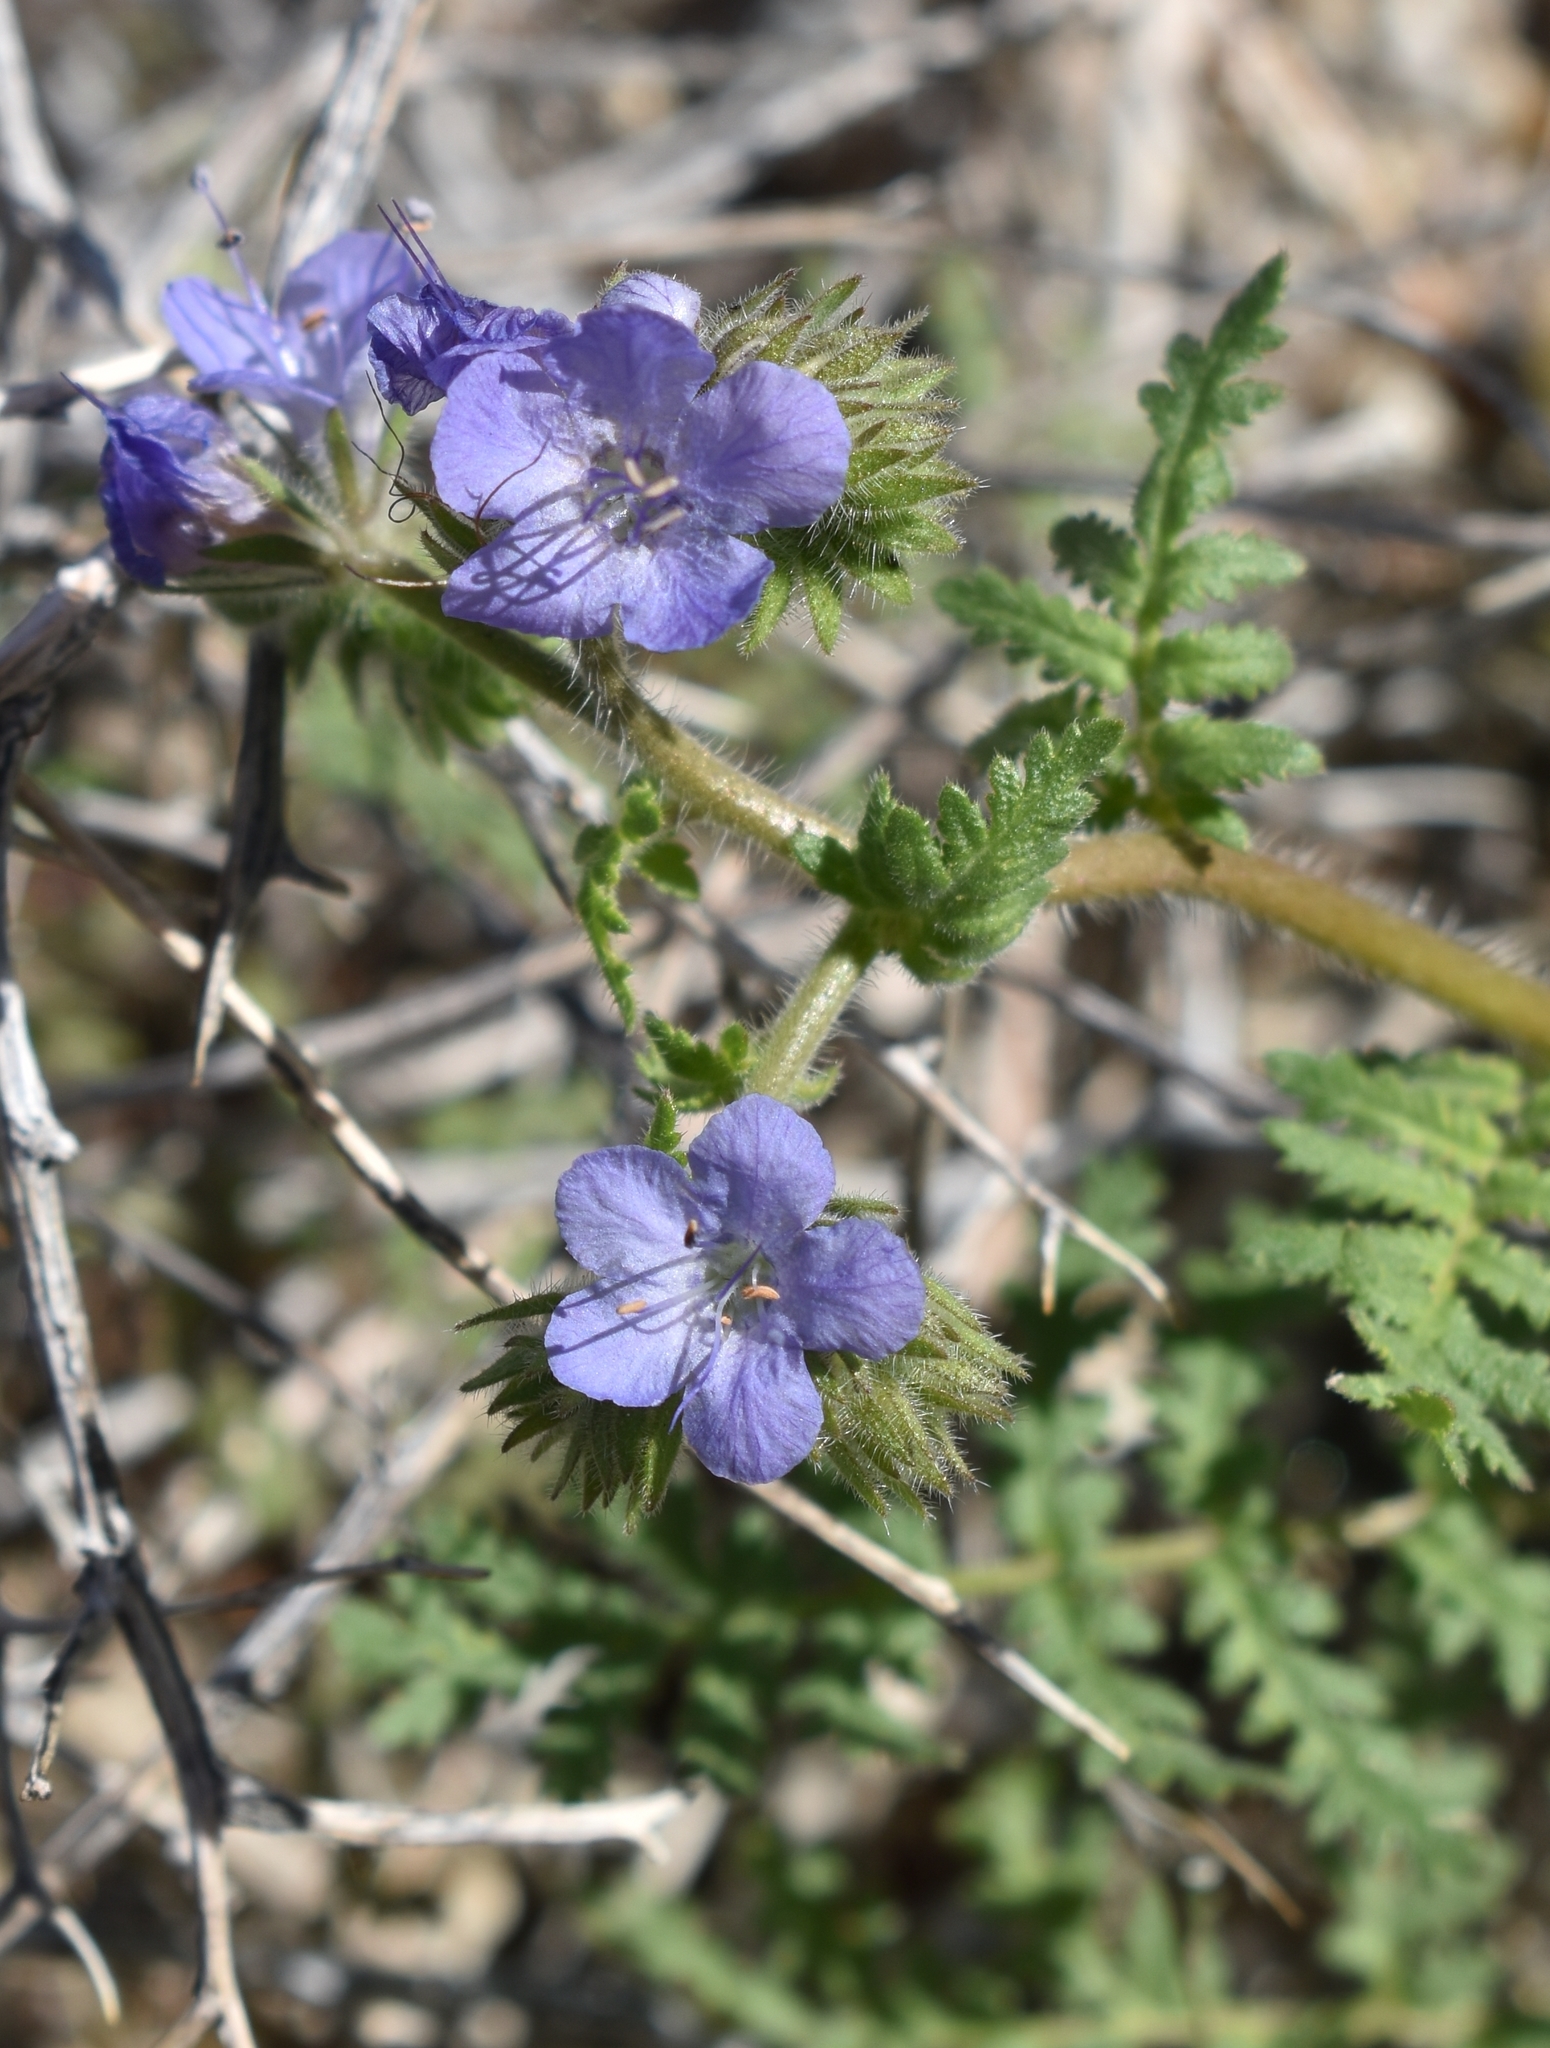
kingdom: Plantae
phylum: Tracheophyta
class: Magnoliopsida
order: Boraginales
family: Hydrophyllaceae
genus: Phacelia
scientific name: Phacelia distans
